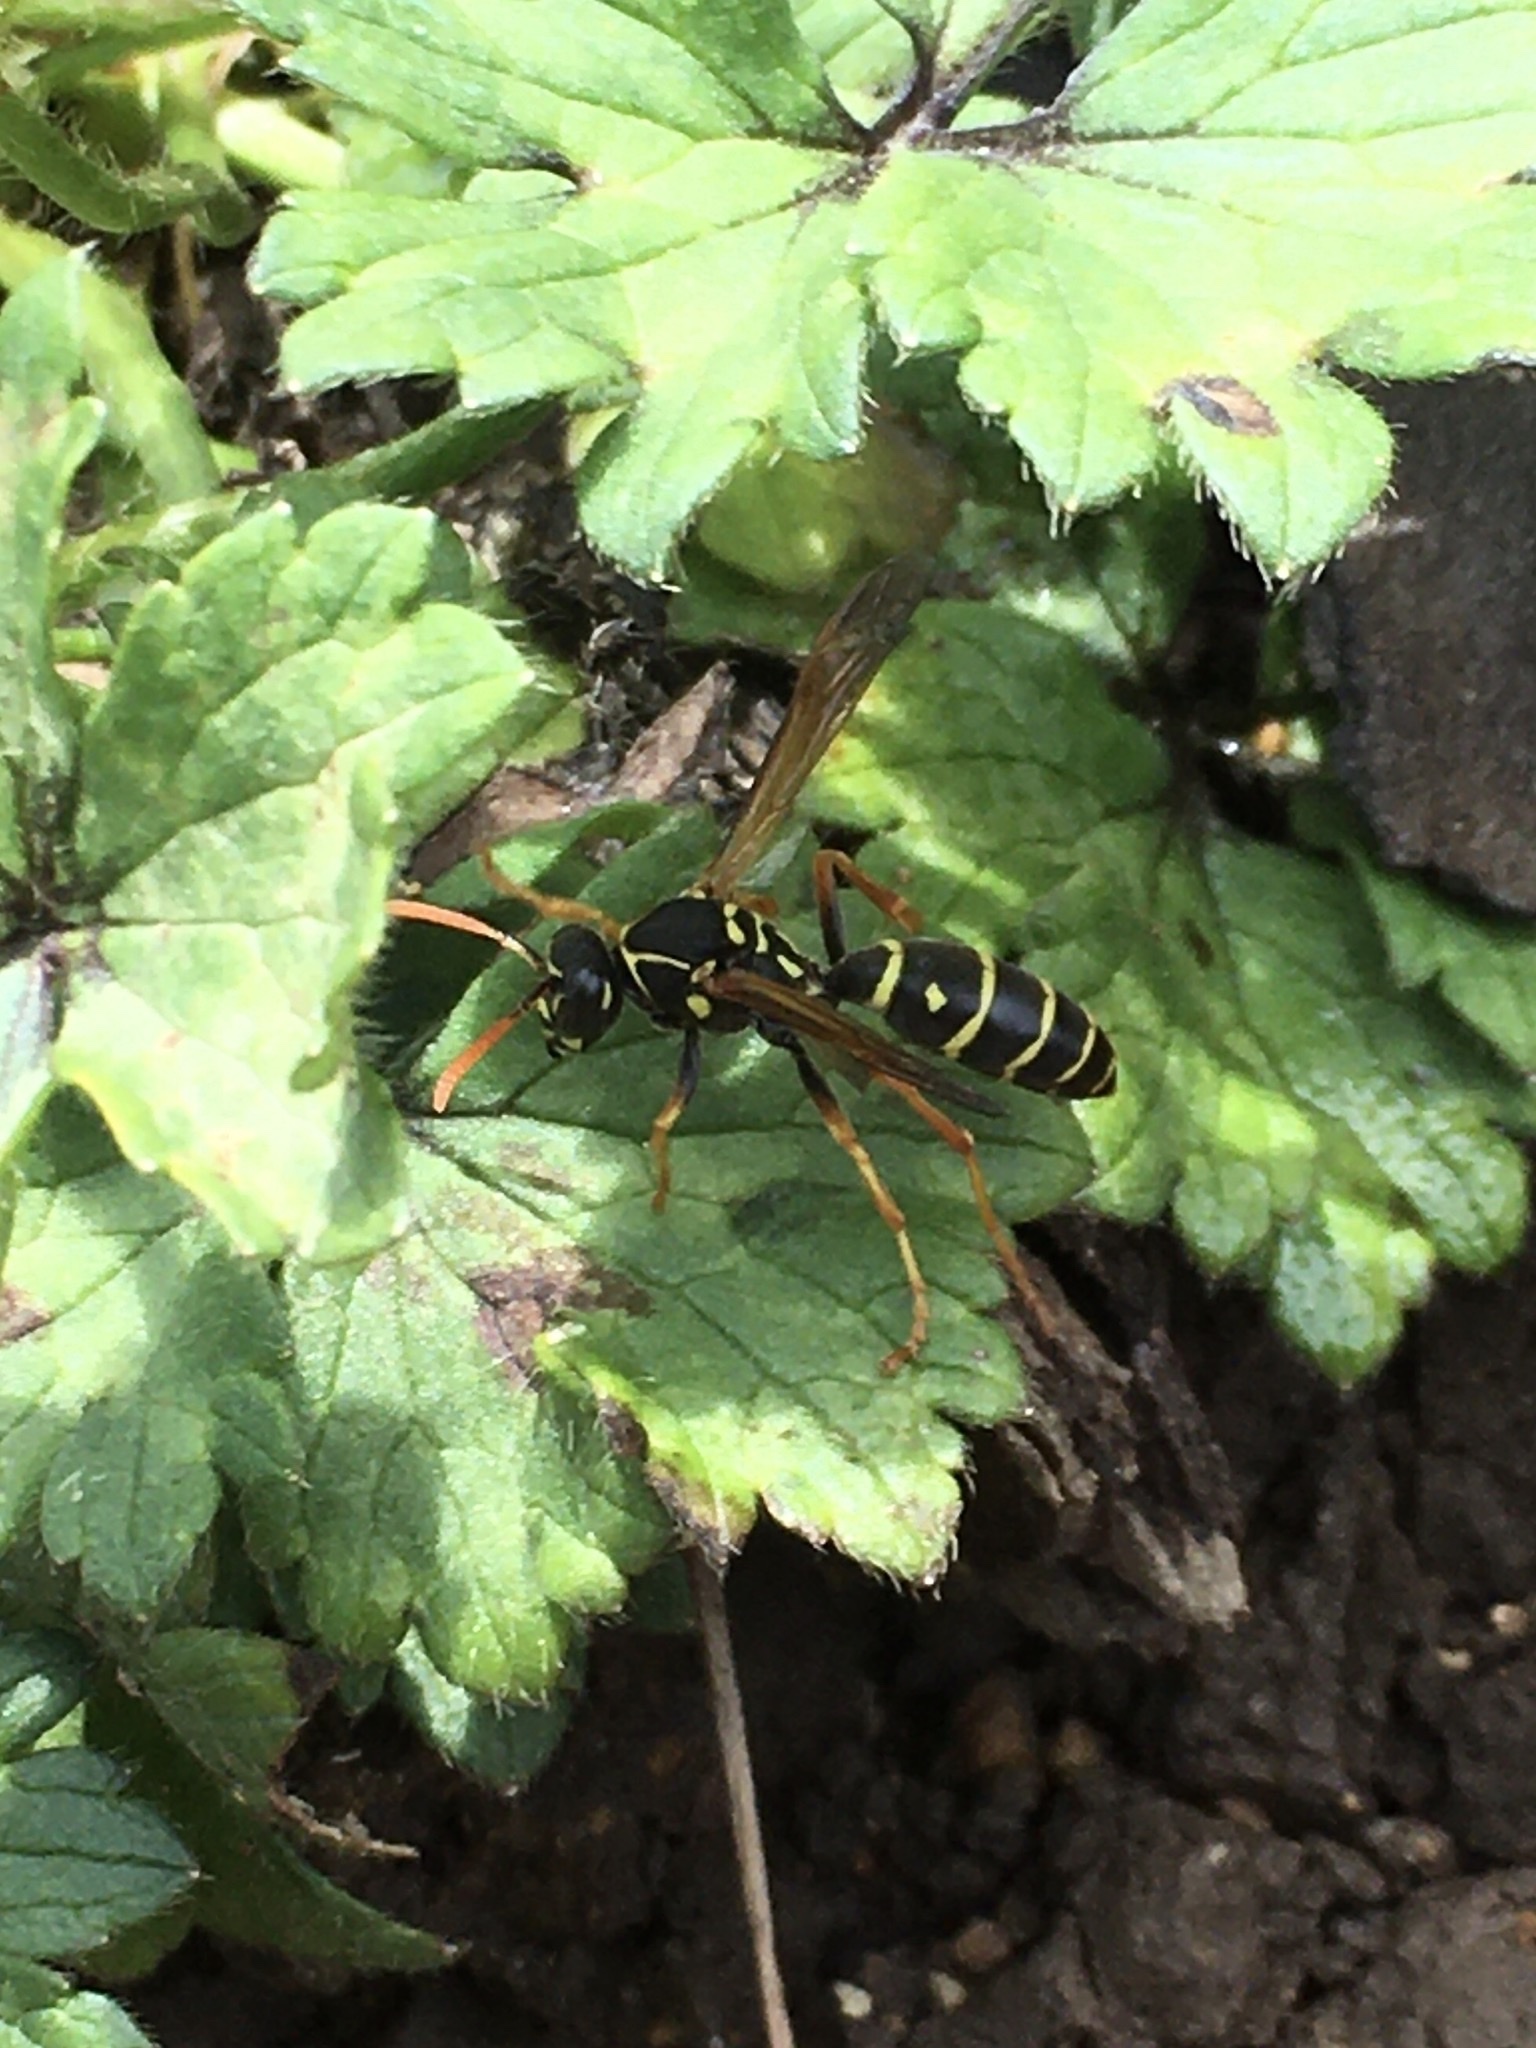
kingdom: Animalia
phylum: Arthropoda
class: Insecta
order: Hymenoptera
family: Eumenidae
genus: Polistes
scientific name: Polistes chinensis
